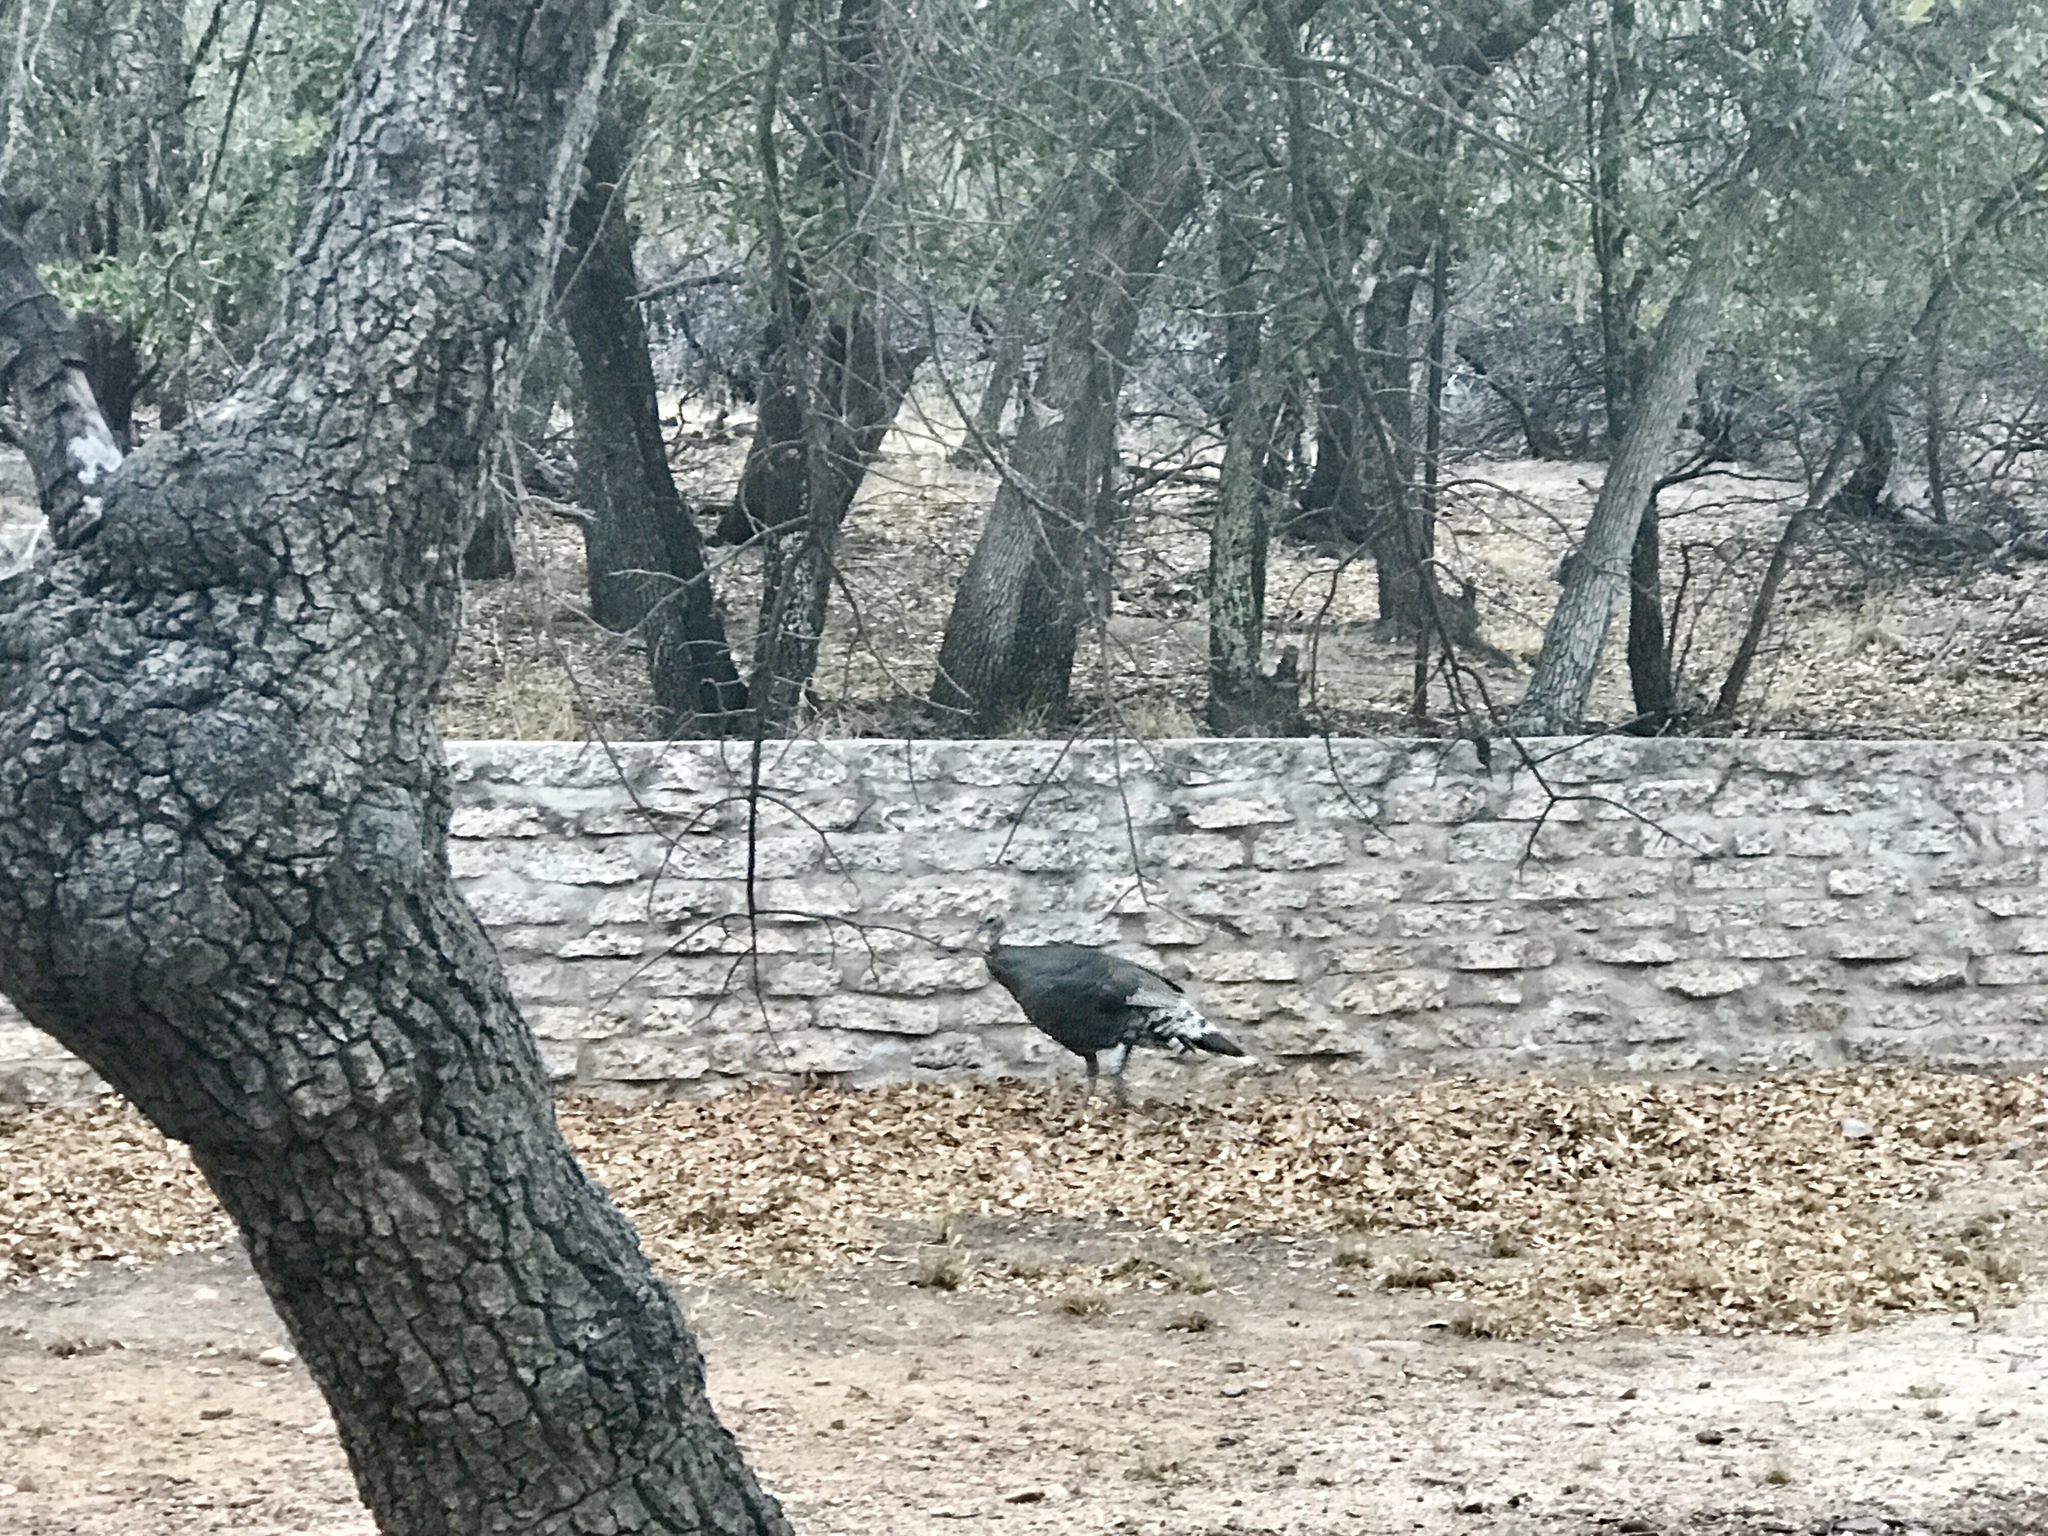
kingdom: Animalia
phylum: Chordata
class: Aves
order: Galliformes
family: Phasianidae
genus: Meleagris
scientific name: Meleagris gallopavo
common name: Wild turkey
